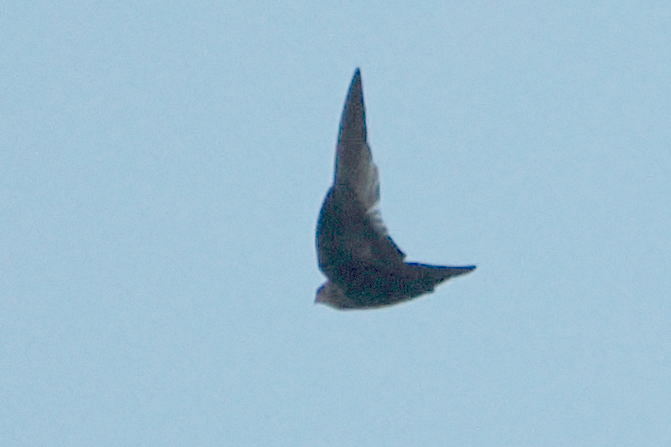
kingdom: Animalia
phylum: Chordata
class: Aves
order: Apodiformes
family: Apodidae
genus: Chaetura
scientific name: Chaetura meridionalis
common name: Sick's swift
